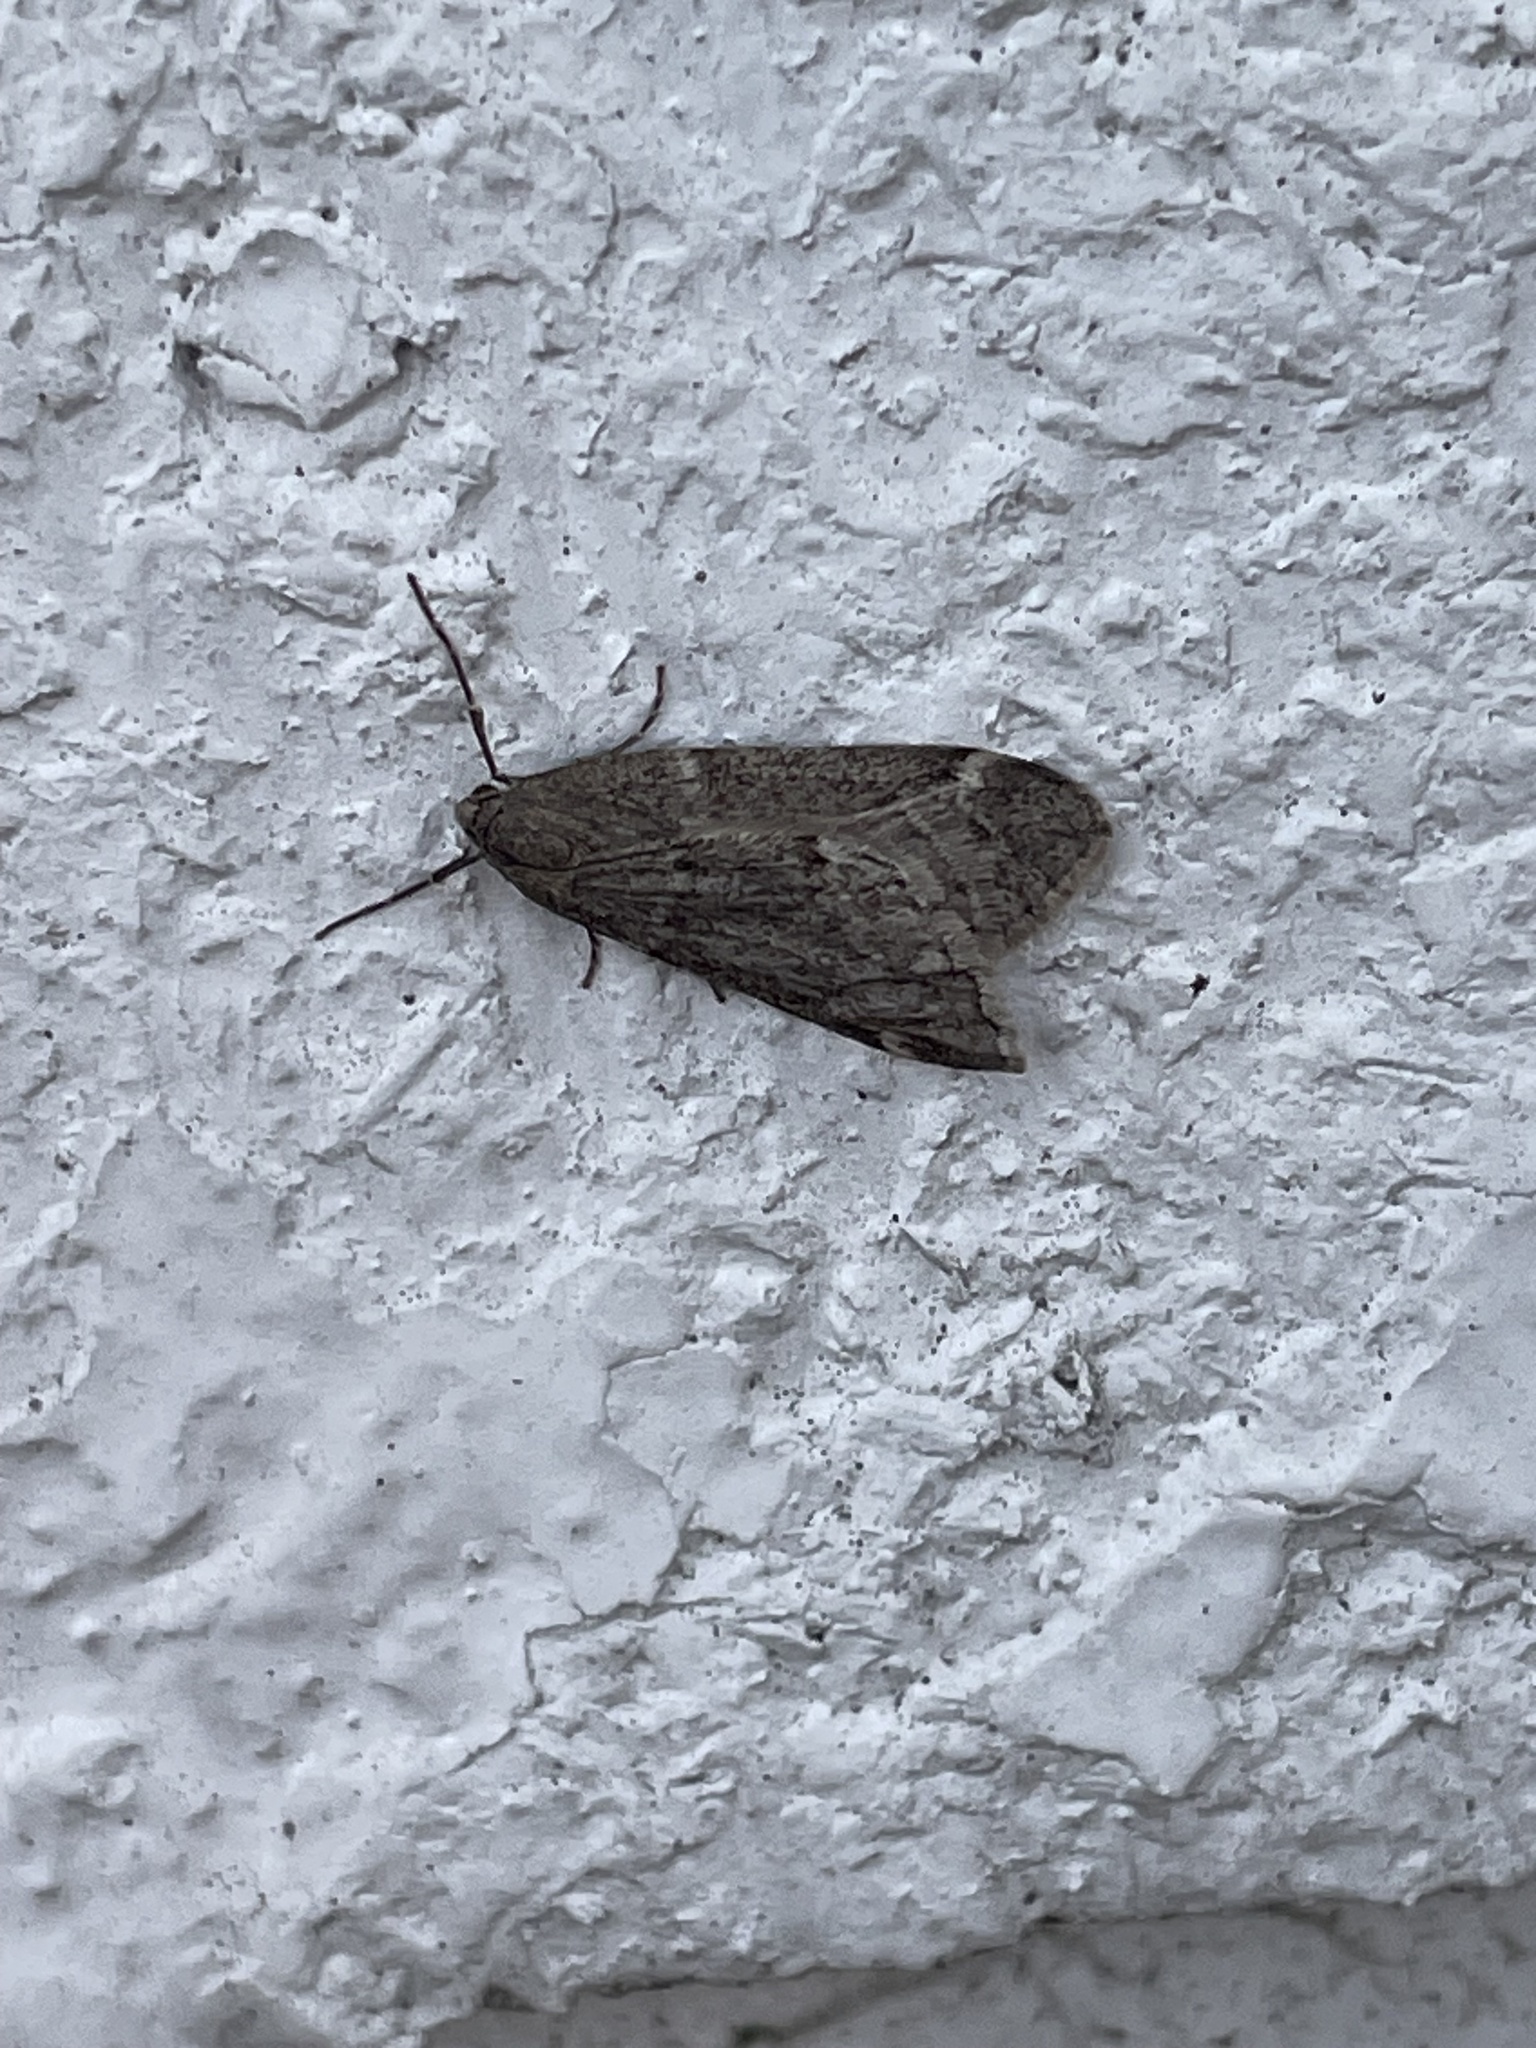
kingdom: Animalia
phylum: Arthropoda
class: Insecta
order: Lepidoptera
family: Geometridae
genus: Alsophila
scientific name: Alsophila pometaria
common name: Fall cankerworm
